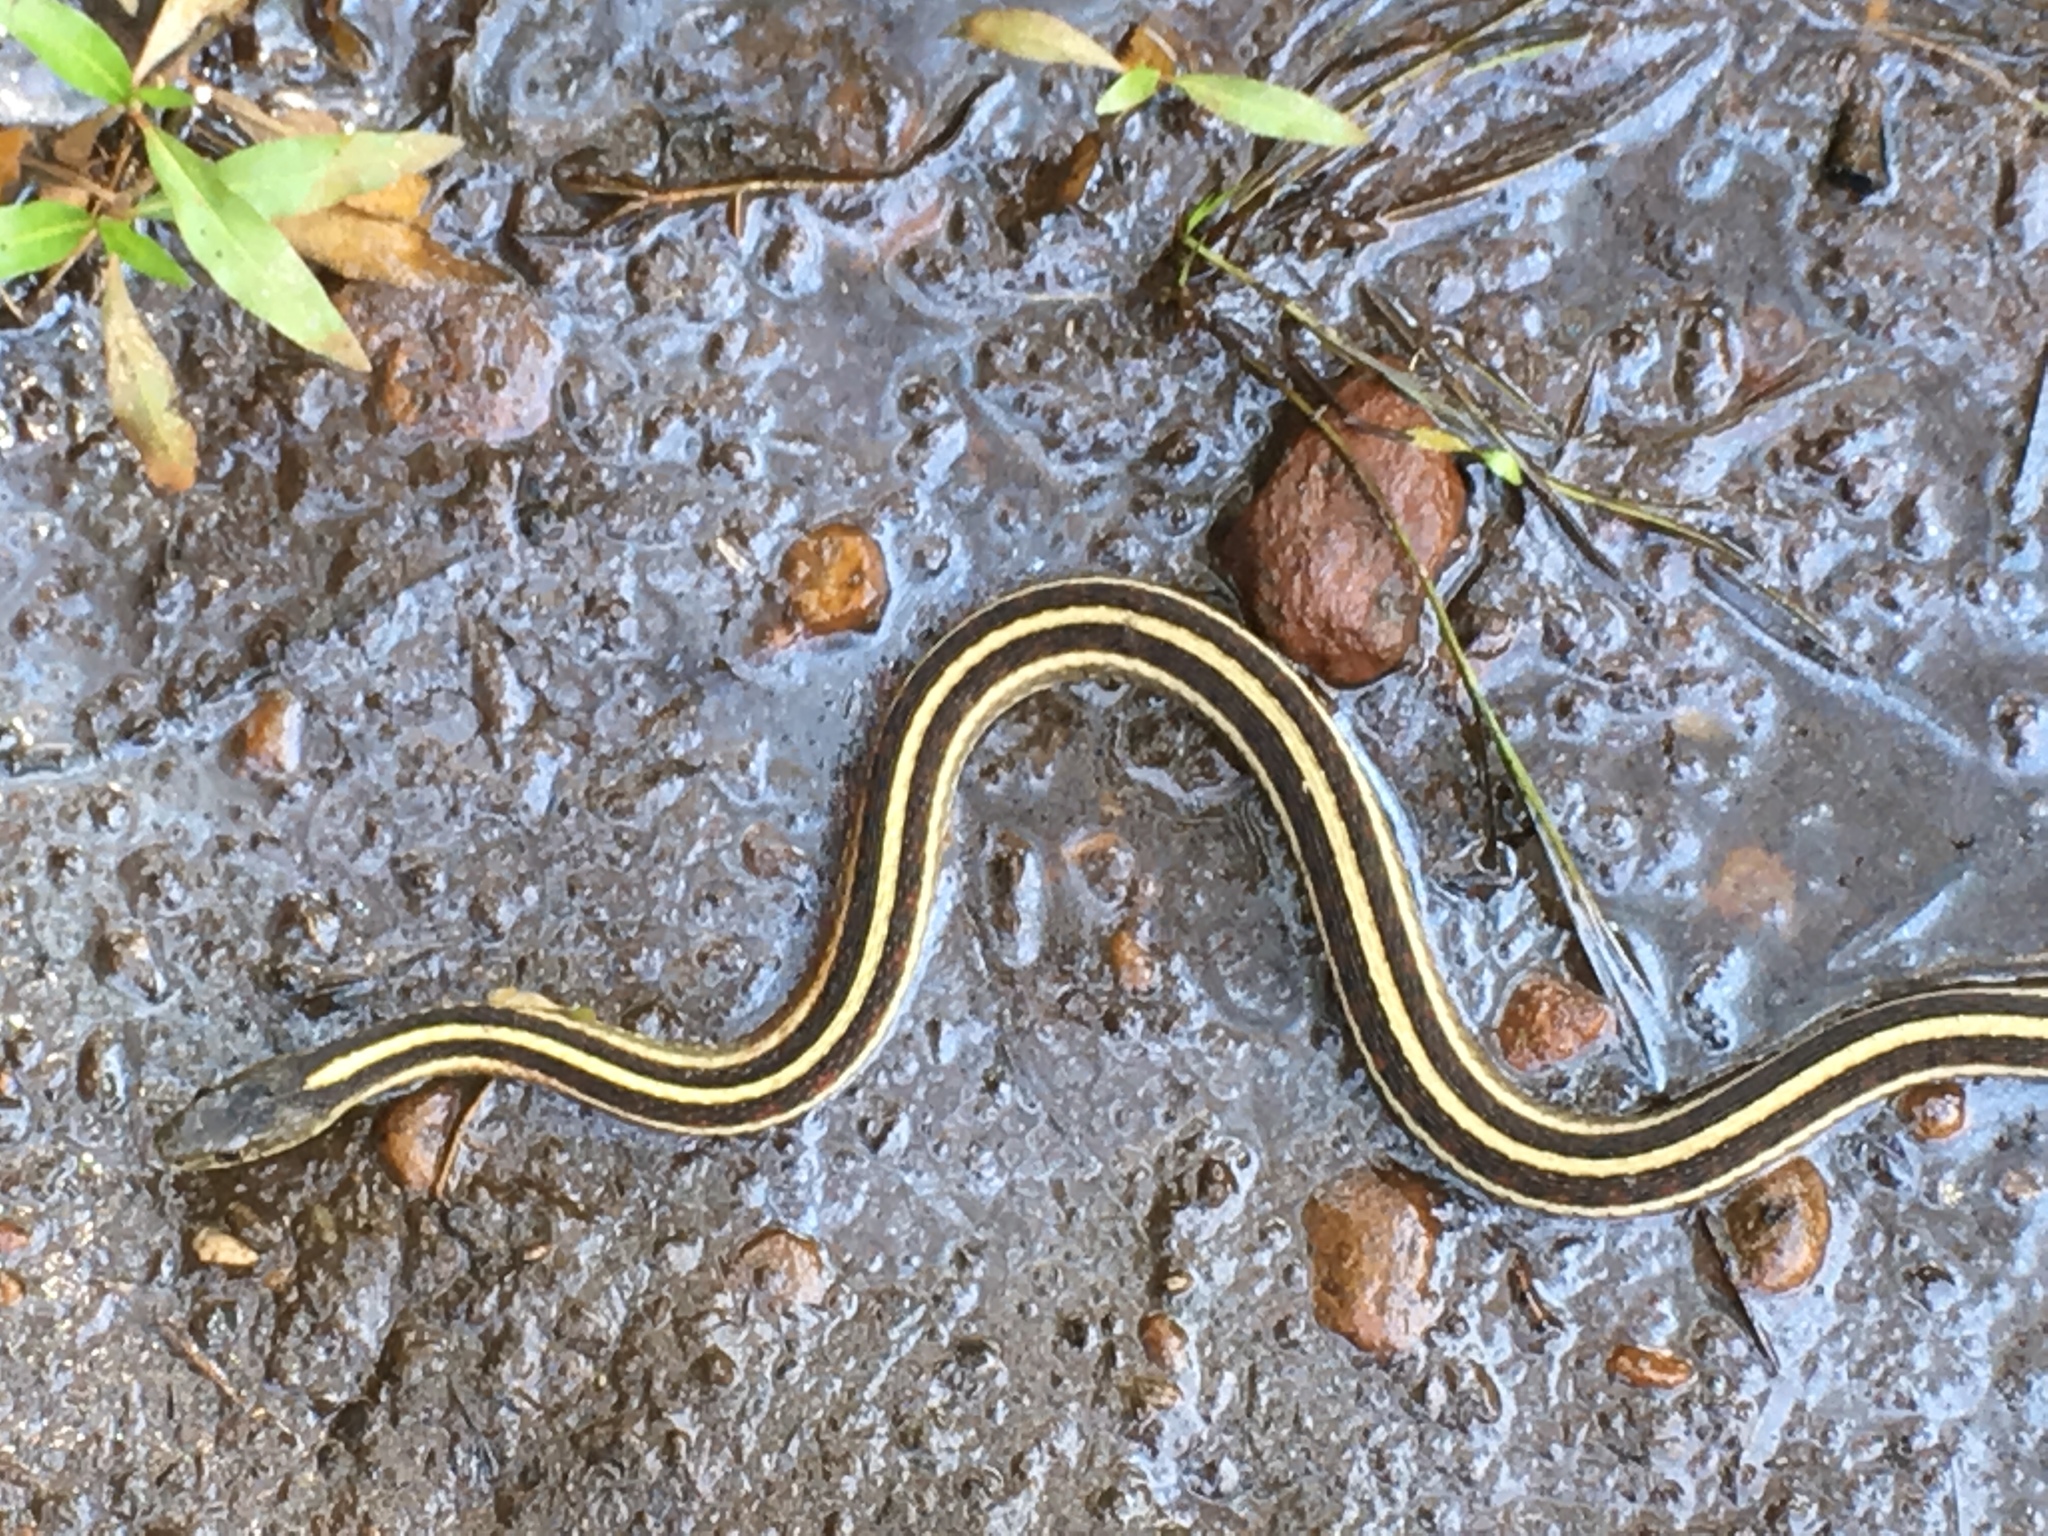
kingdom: Animalia
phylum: Chordata
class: Squamata
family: Colubridae
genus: Thamnophis
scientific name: Thamnophis sirtalis
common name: Common garter snake
